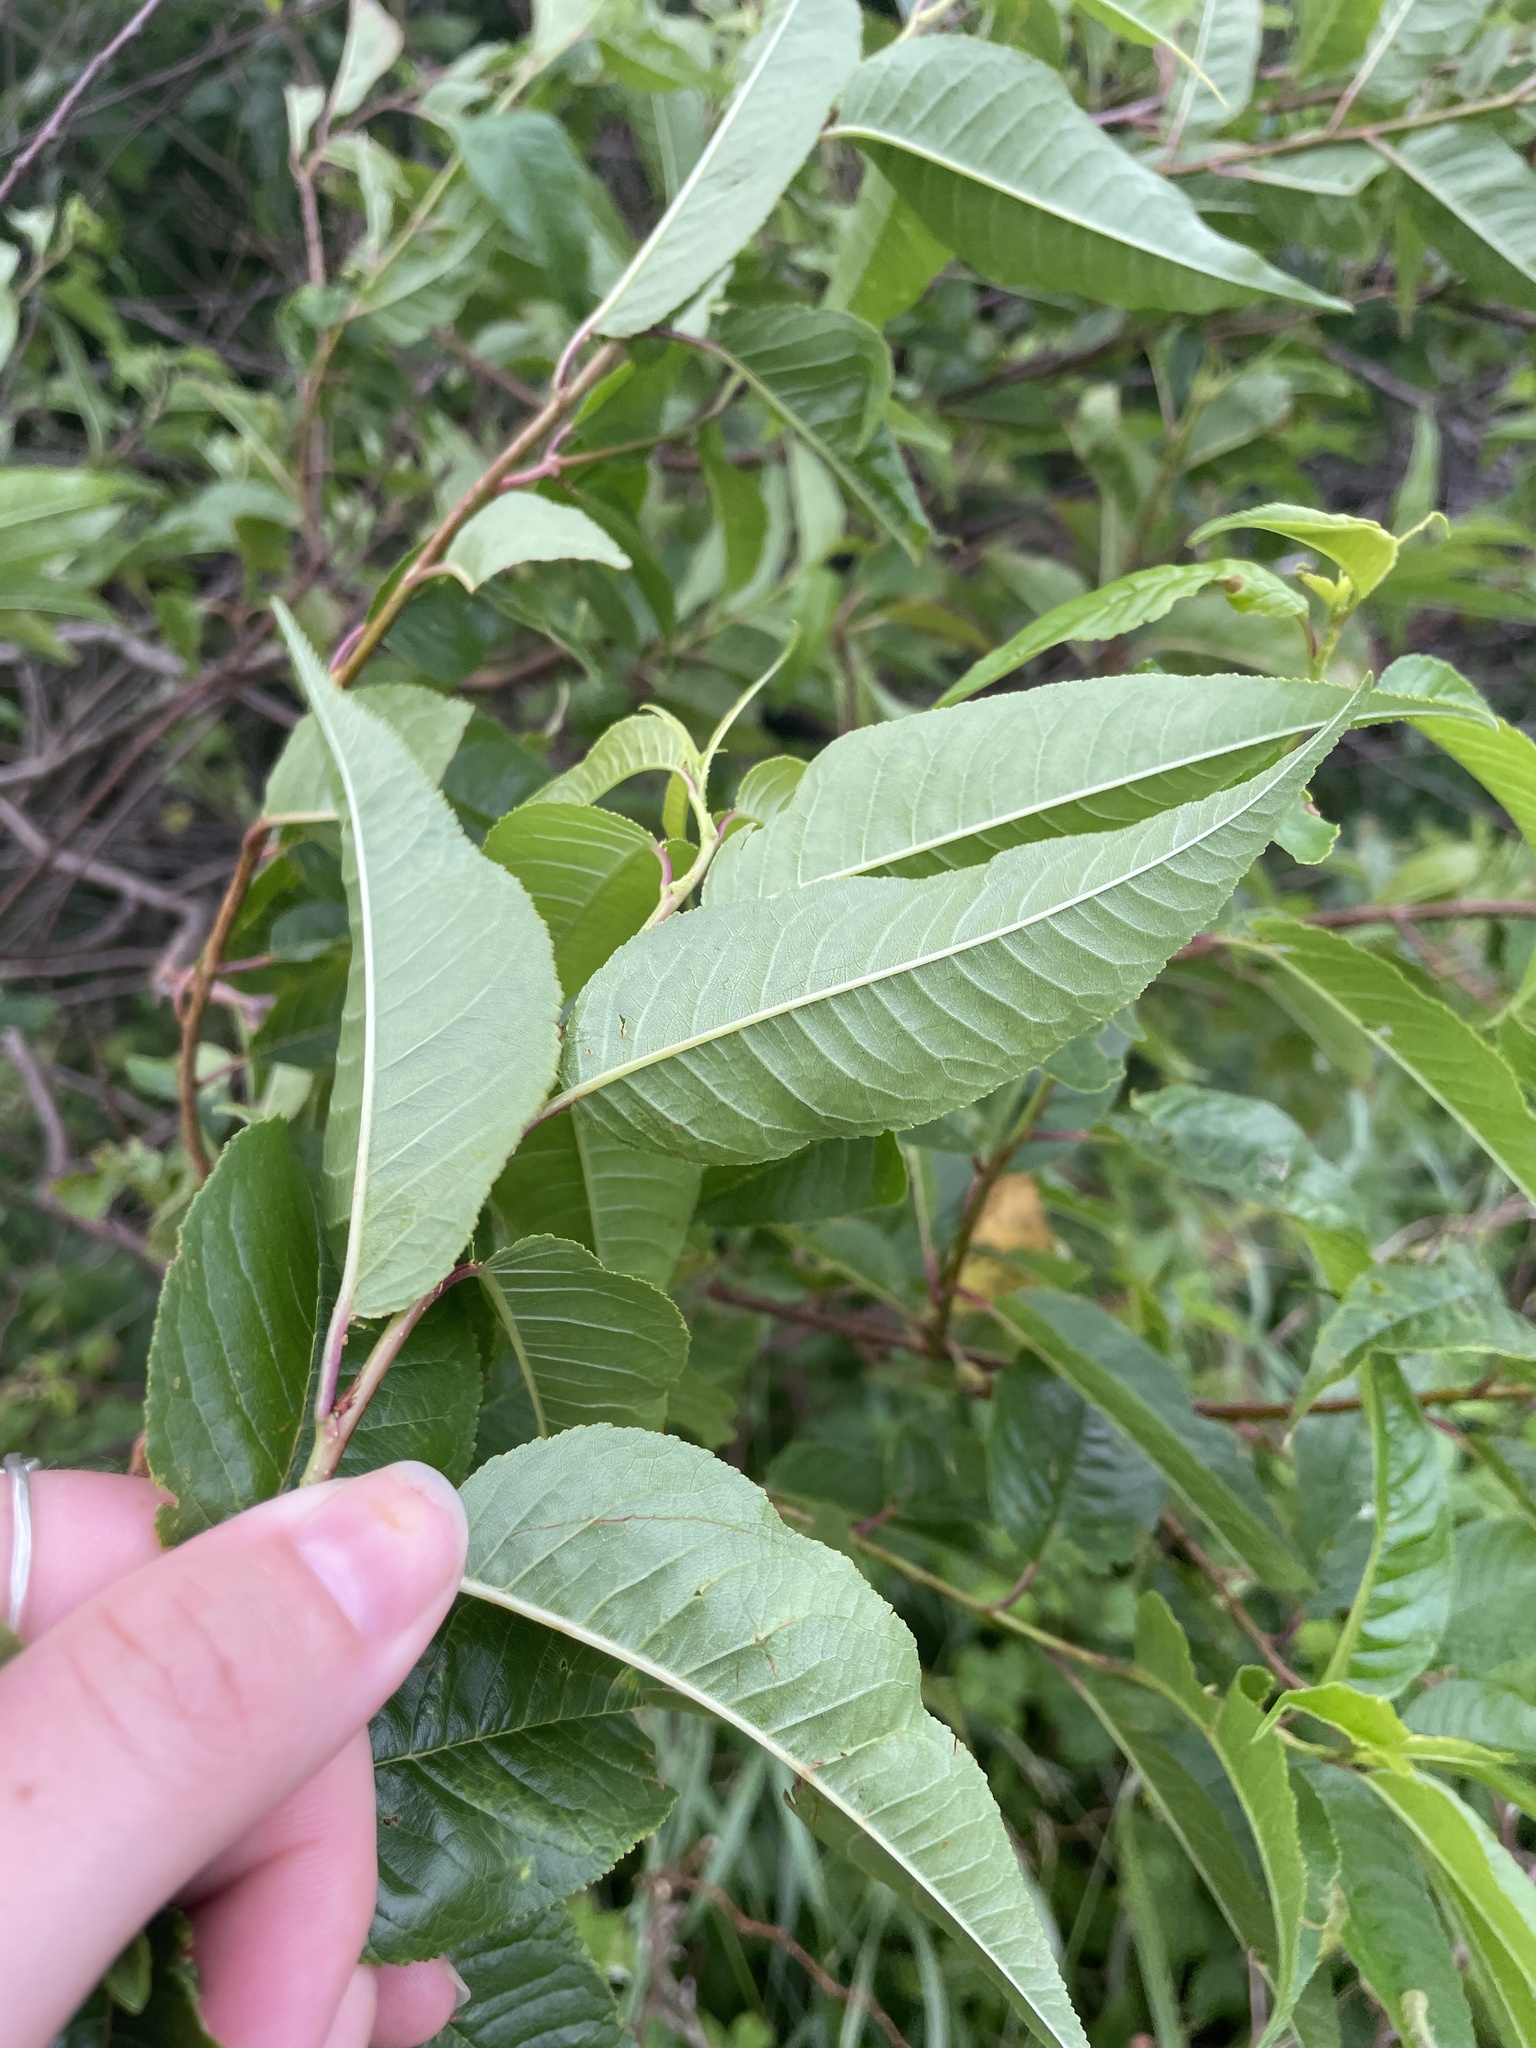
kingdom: Plantae
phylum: Tracheophyta
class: Magnoliopsida
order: Rosales
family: Rosaceae
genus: Prunus
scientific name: Prunus pensylvanica
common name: Pin cherry
